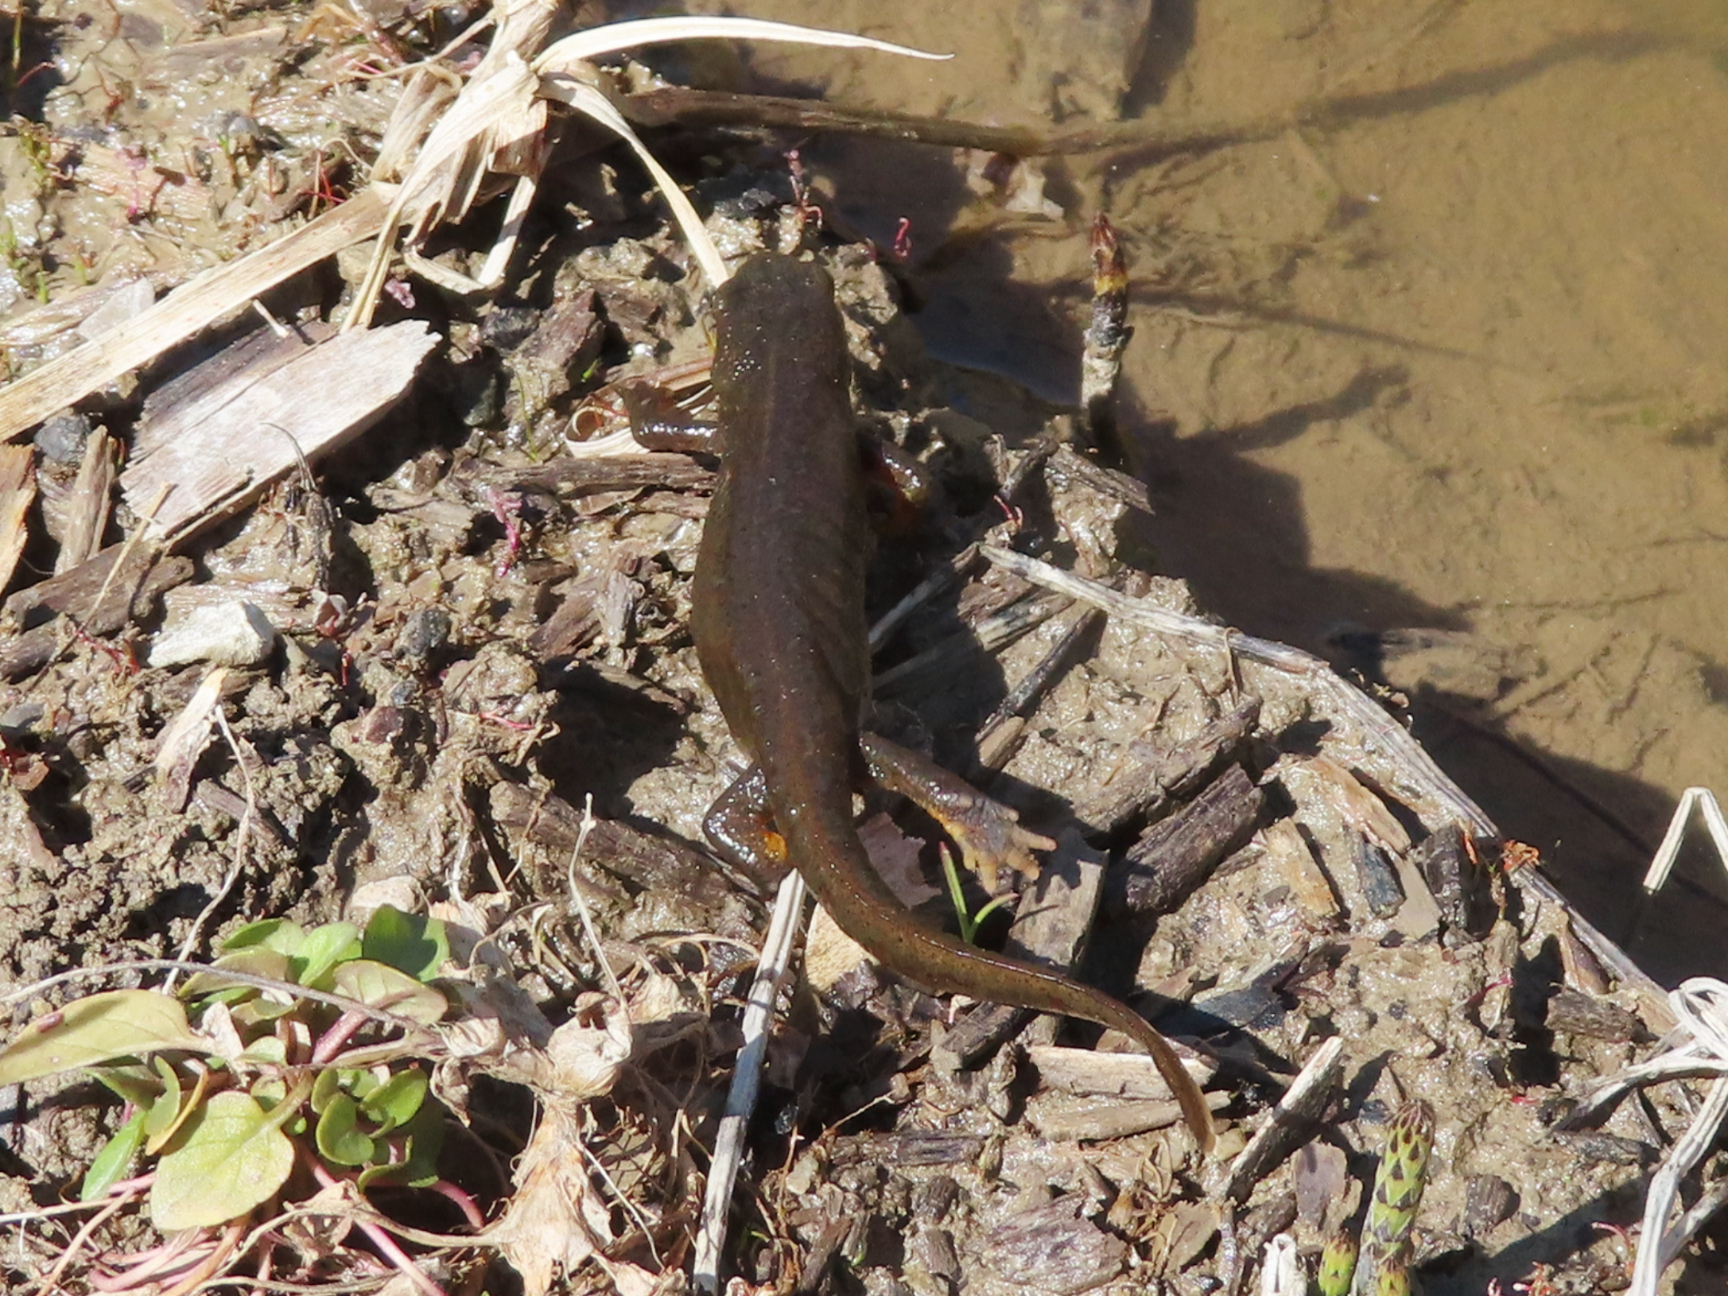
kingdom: Animalia
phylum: Chordata
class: Amphibia
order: Caudata
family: Salamandridae
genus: Lissotriton
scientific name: Lissotriton montandoni
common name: Carpathian newt
